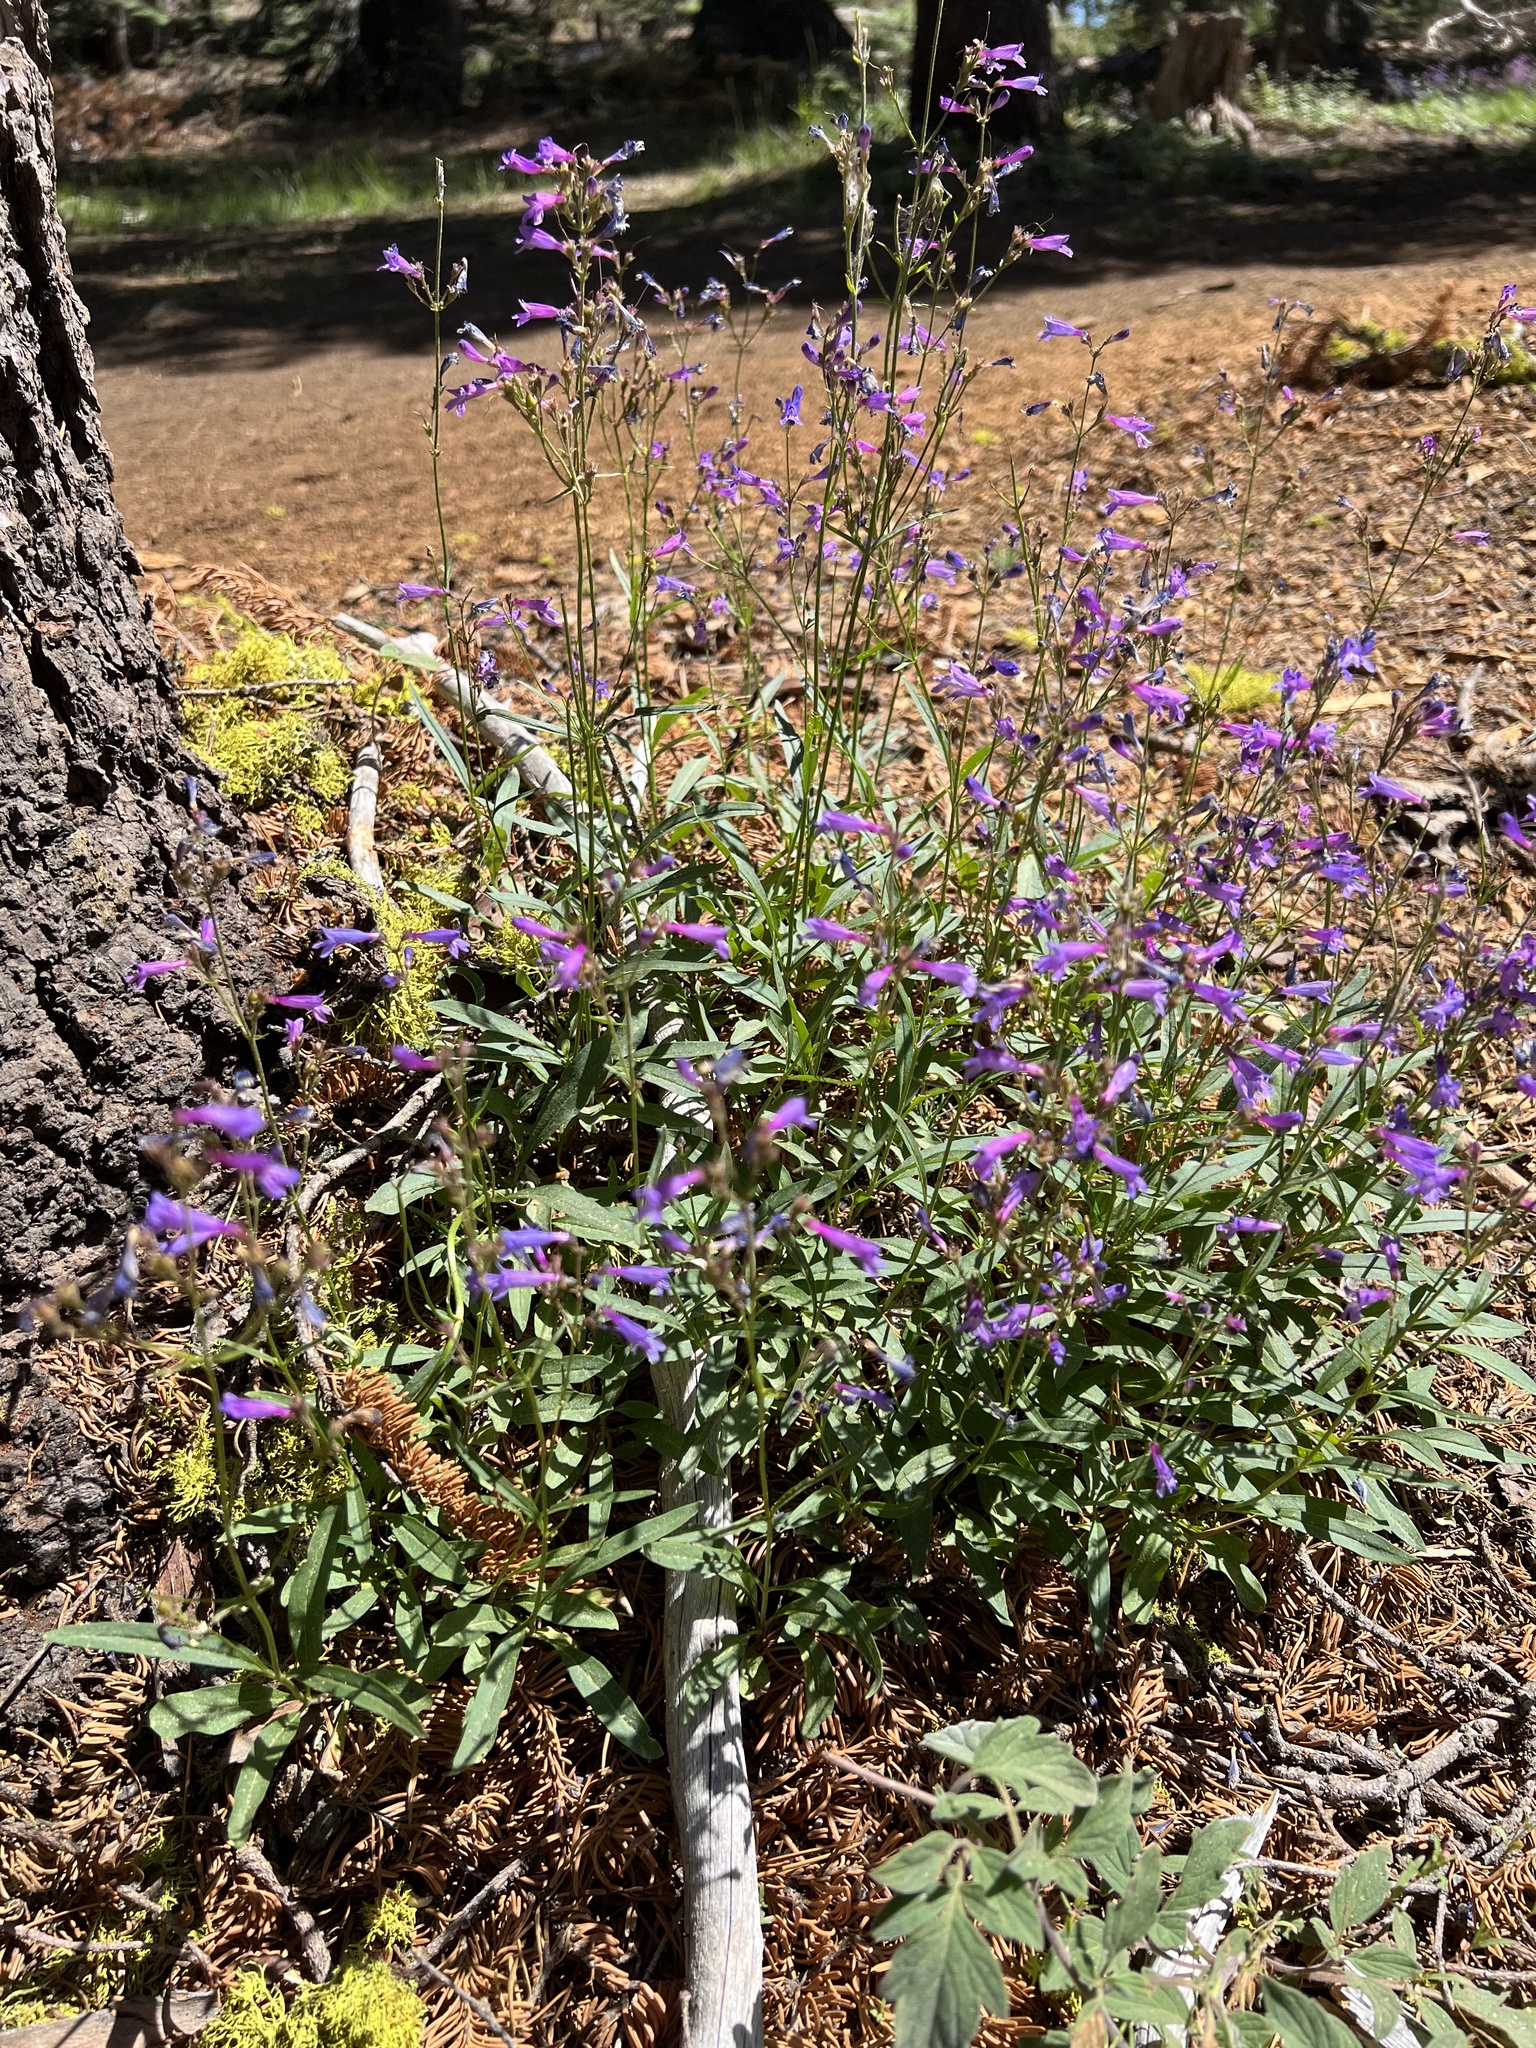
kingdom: Plantae
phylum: Tracheophyta
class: Magnoliopsida
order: Lamiales
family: Plantaginaceae
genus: Penstemon
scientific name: Penstemon gracilentus
